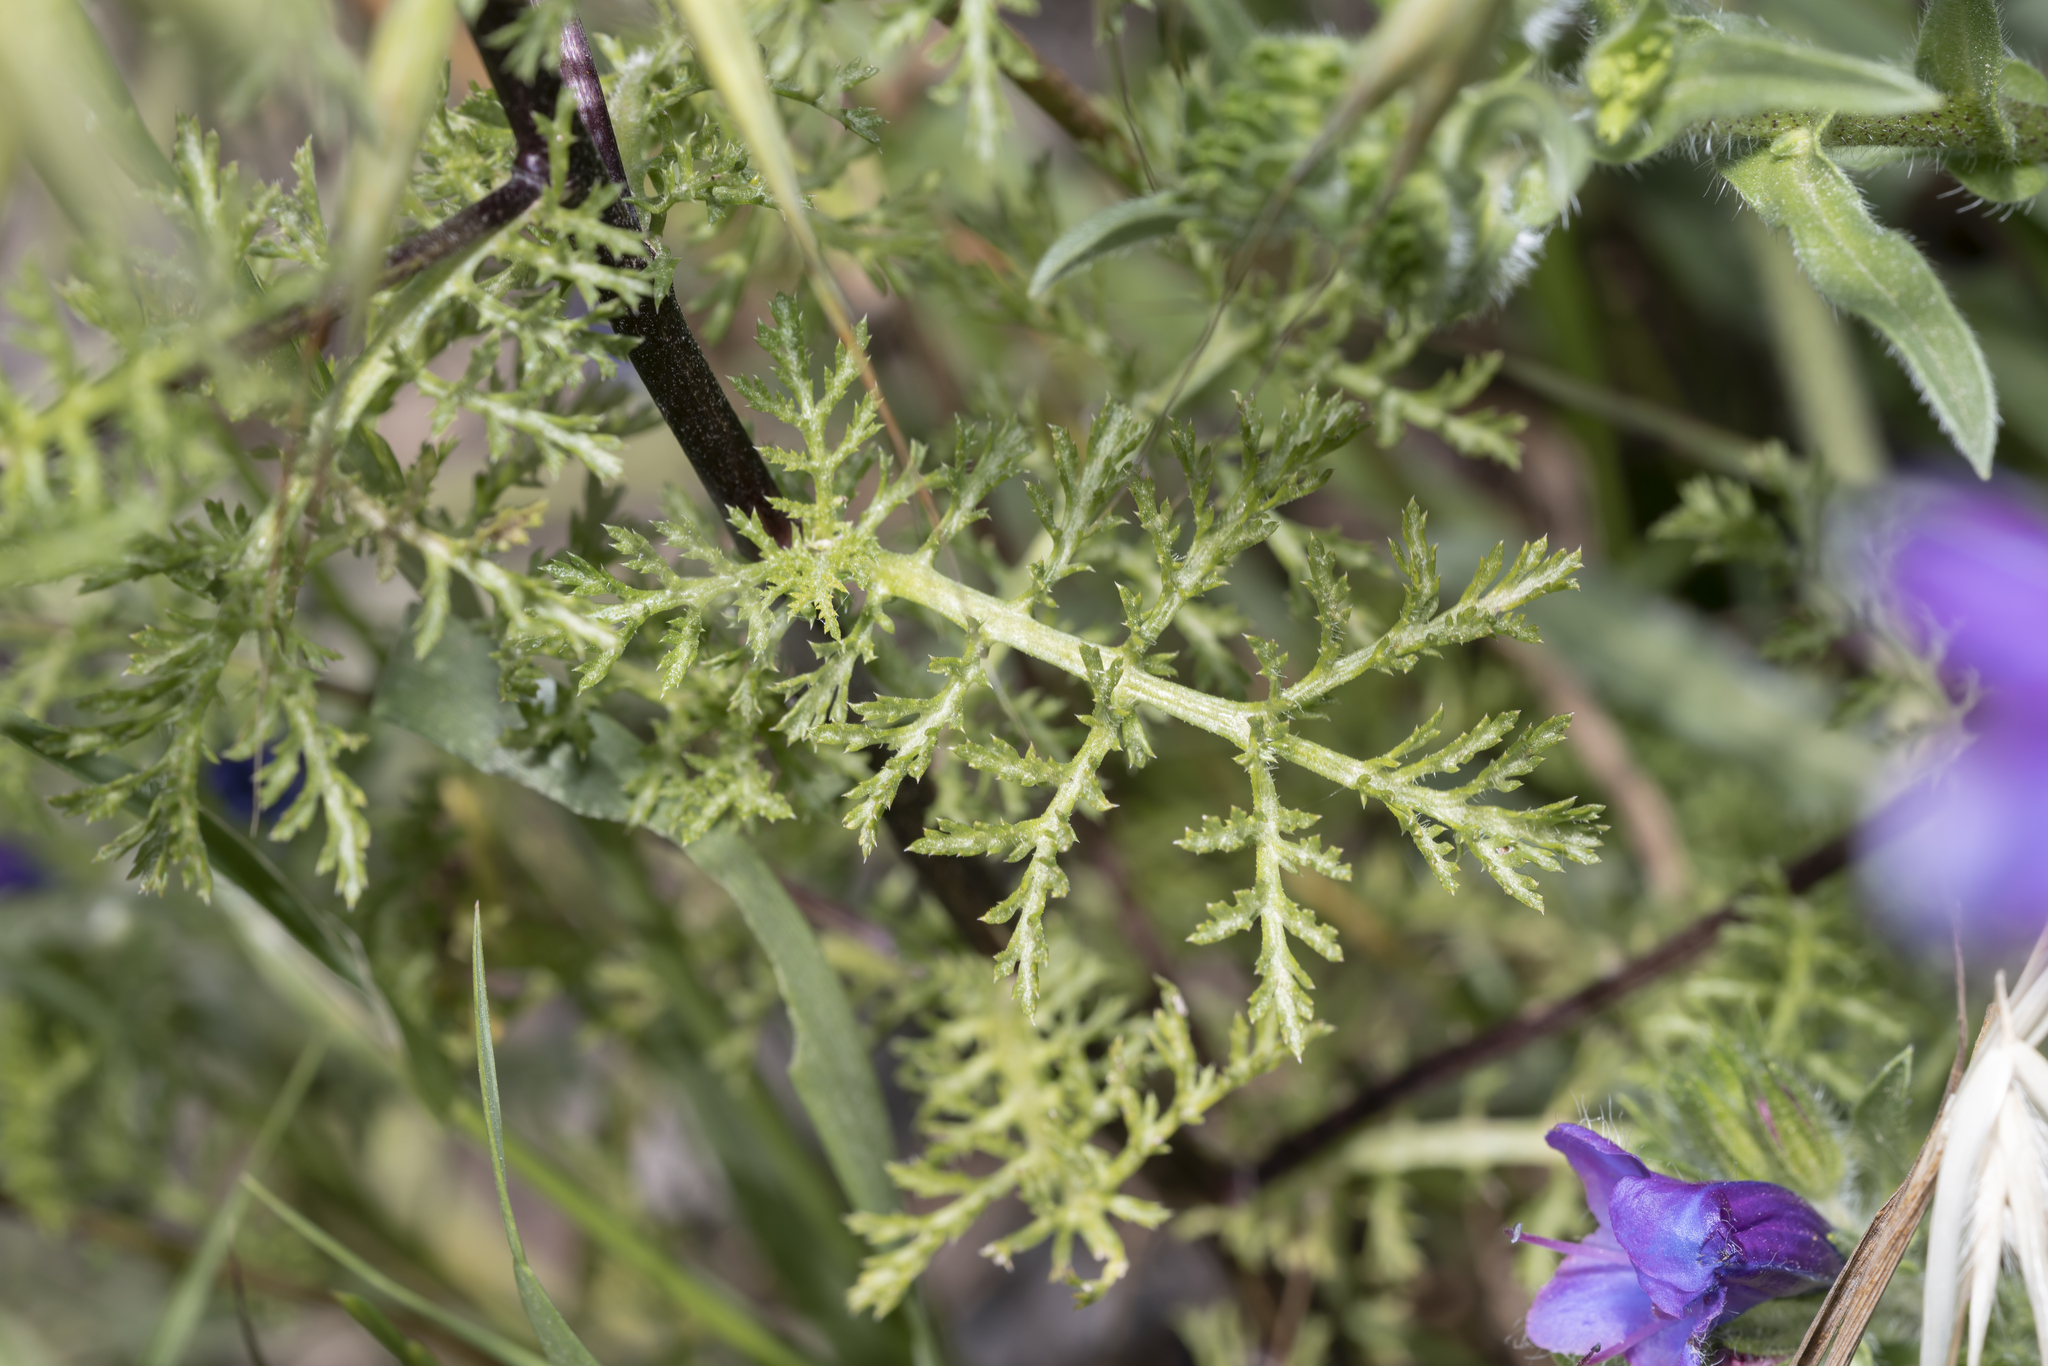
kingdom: Plantae
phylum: Tracheophyta
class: Magnoliopsida
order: Asterales
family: Asteraceae
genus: Cota
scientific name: Cota altissima
